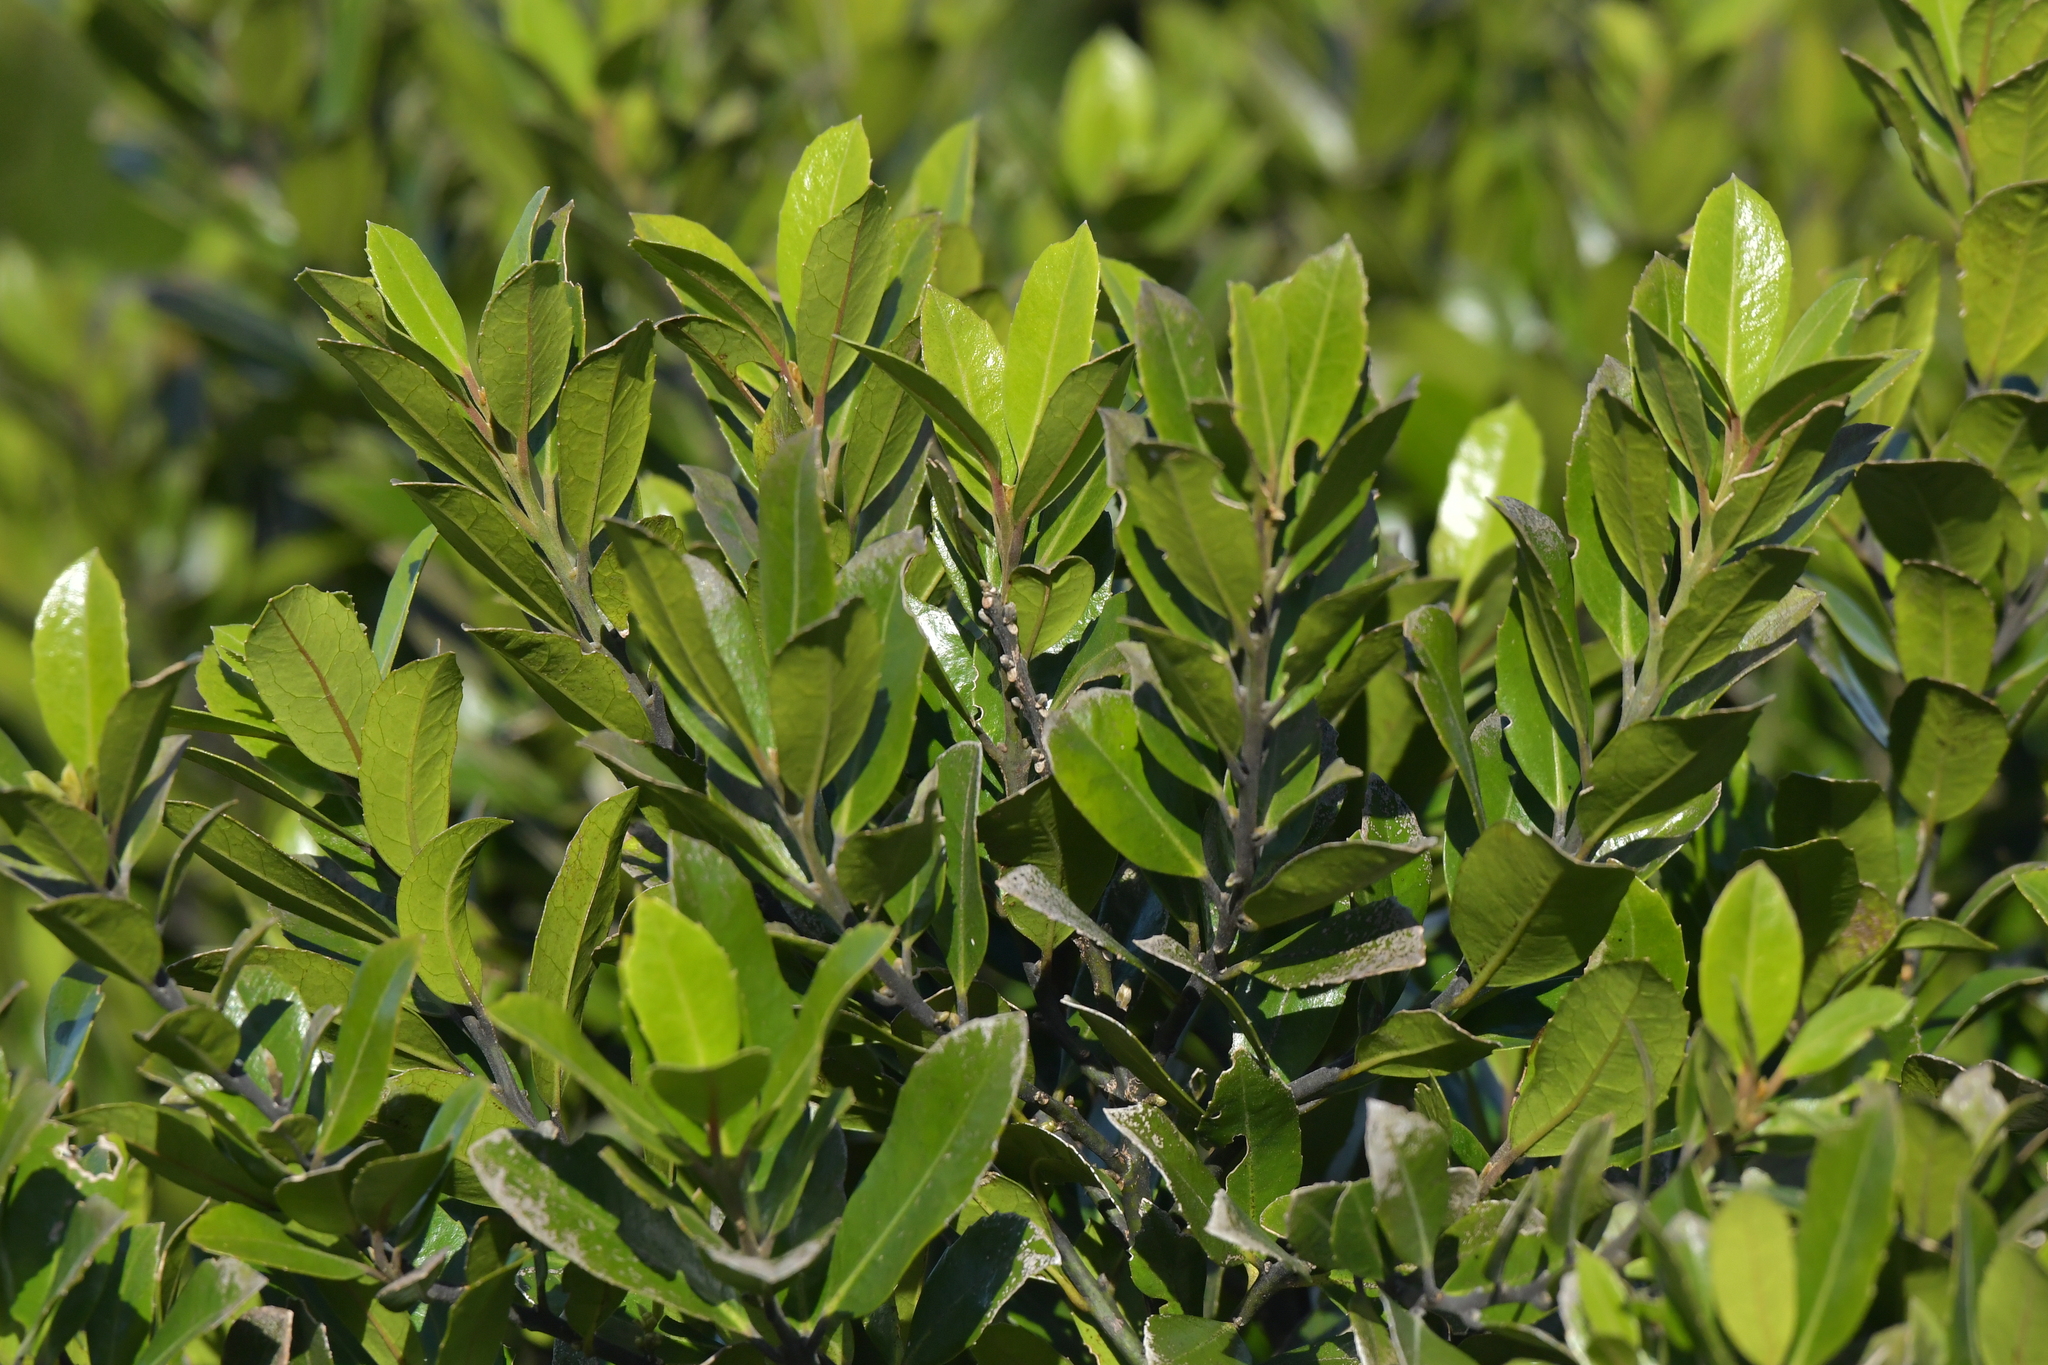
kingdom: Plantae
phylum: Tracheophyta
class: Magnoliopsida
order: Laurales
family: Monimiaceae
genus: Hedycarya
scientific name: Hedycarya arborea
